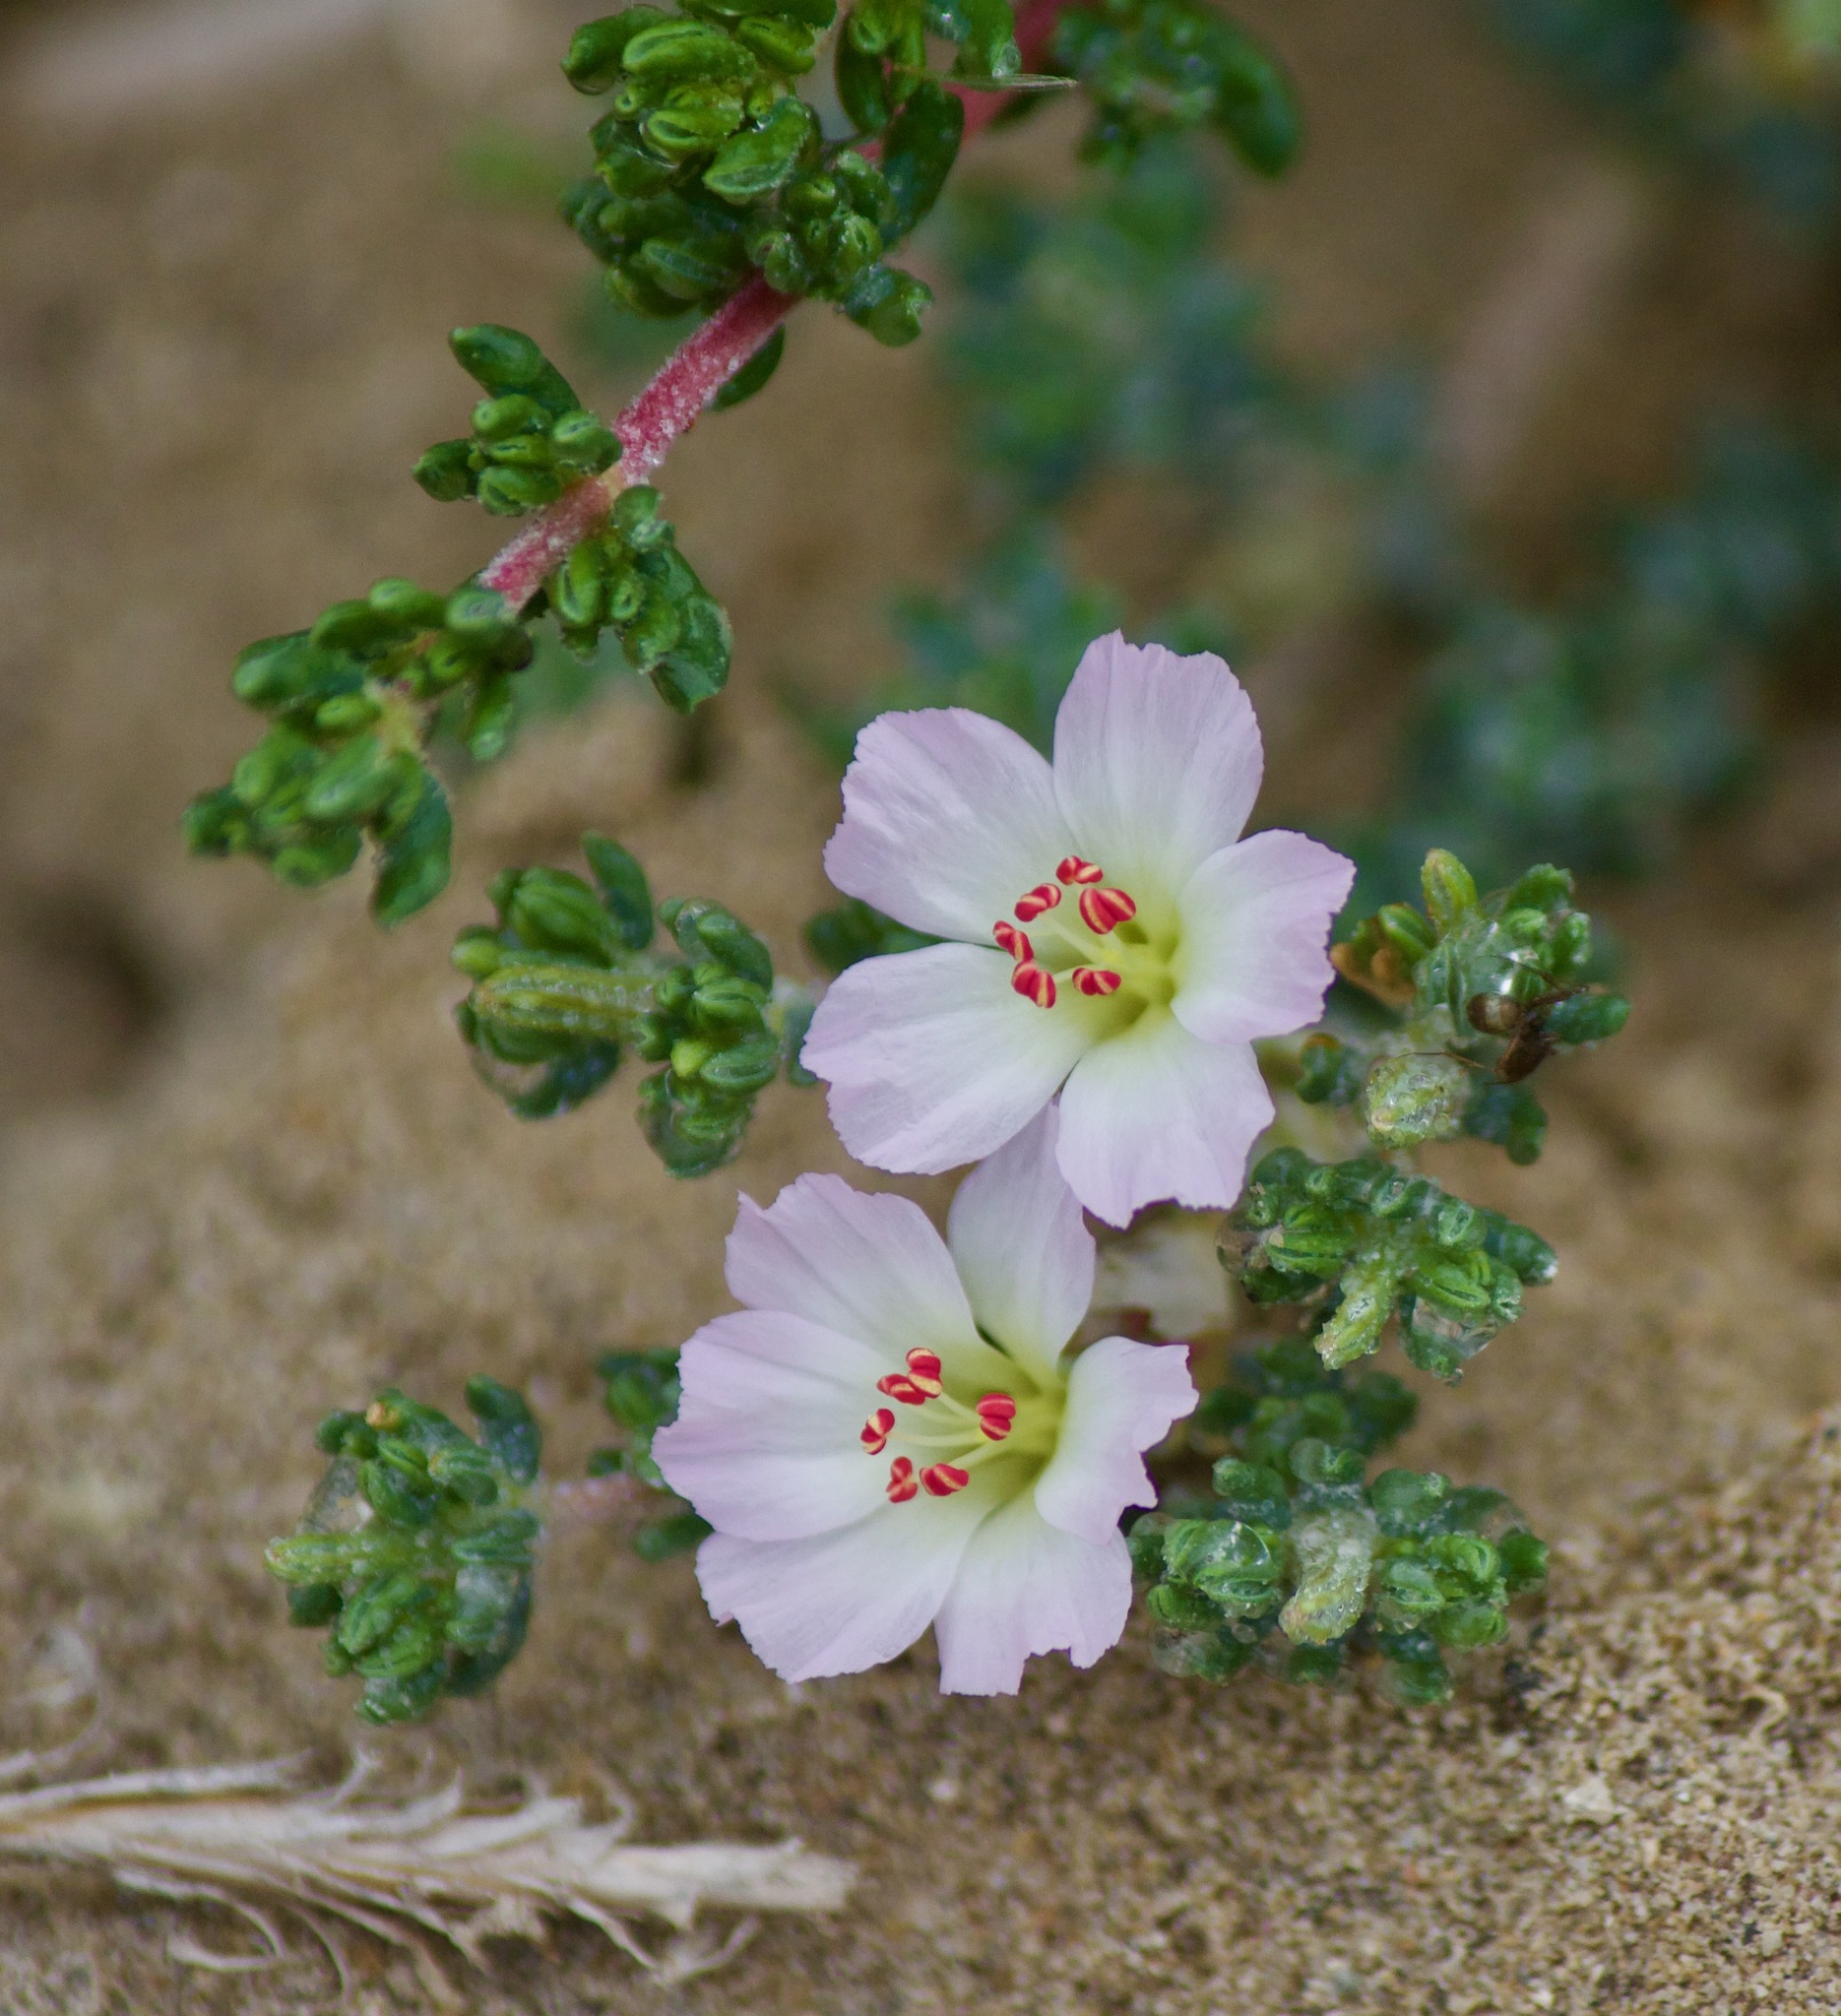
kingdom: Plantae
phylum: Tracheophyta
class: Magnoliopsida
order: Caryophyllales
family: Frankeniaceae
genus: Frankenia
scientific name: Frankenia chilensis
